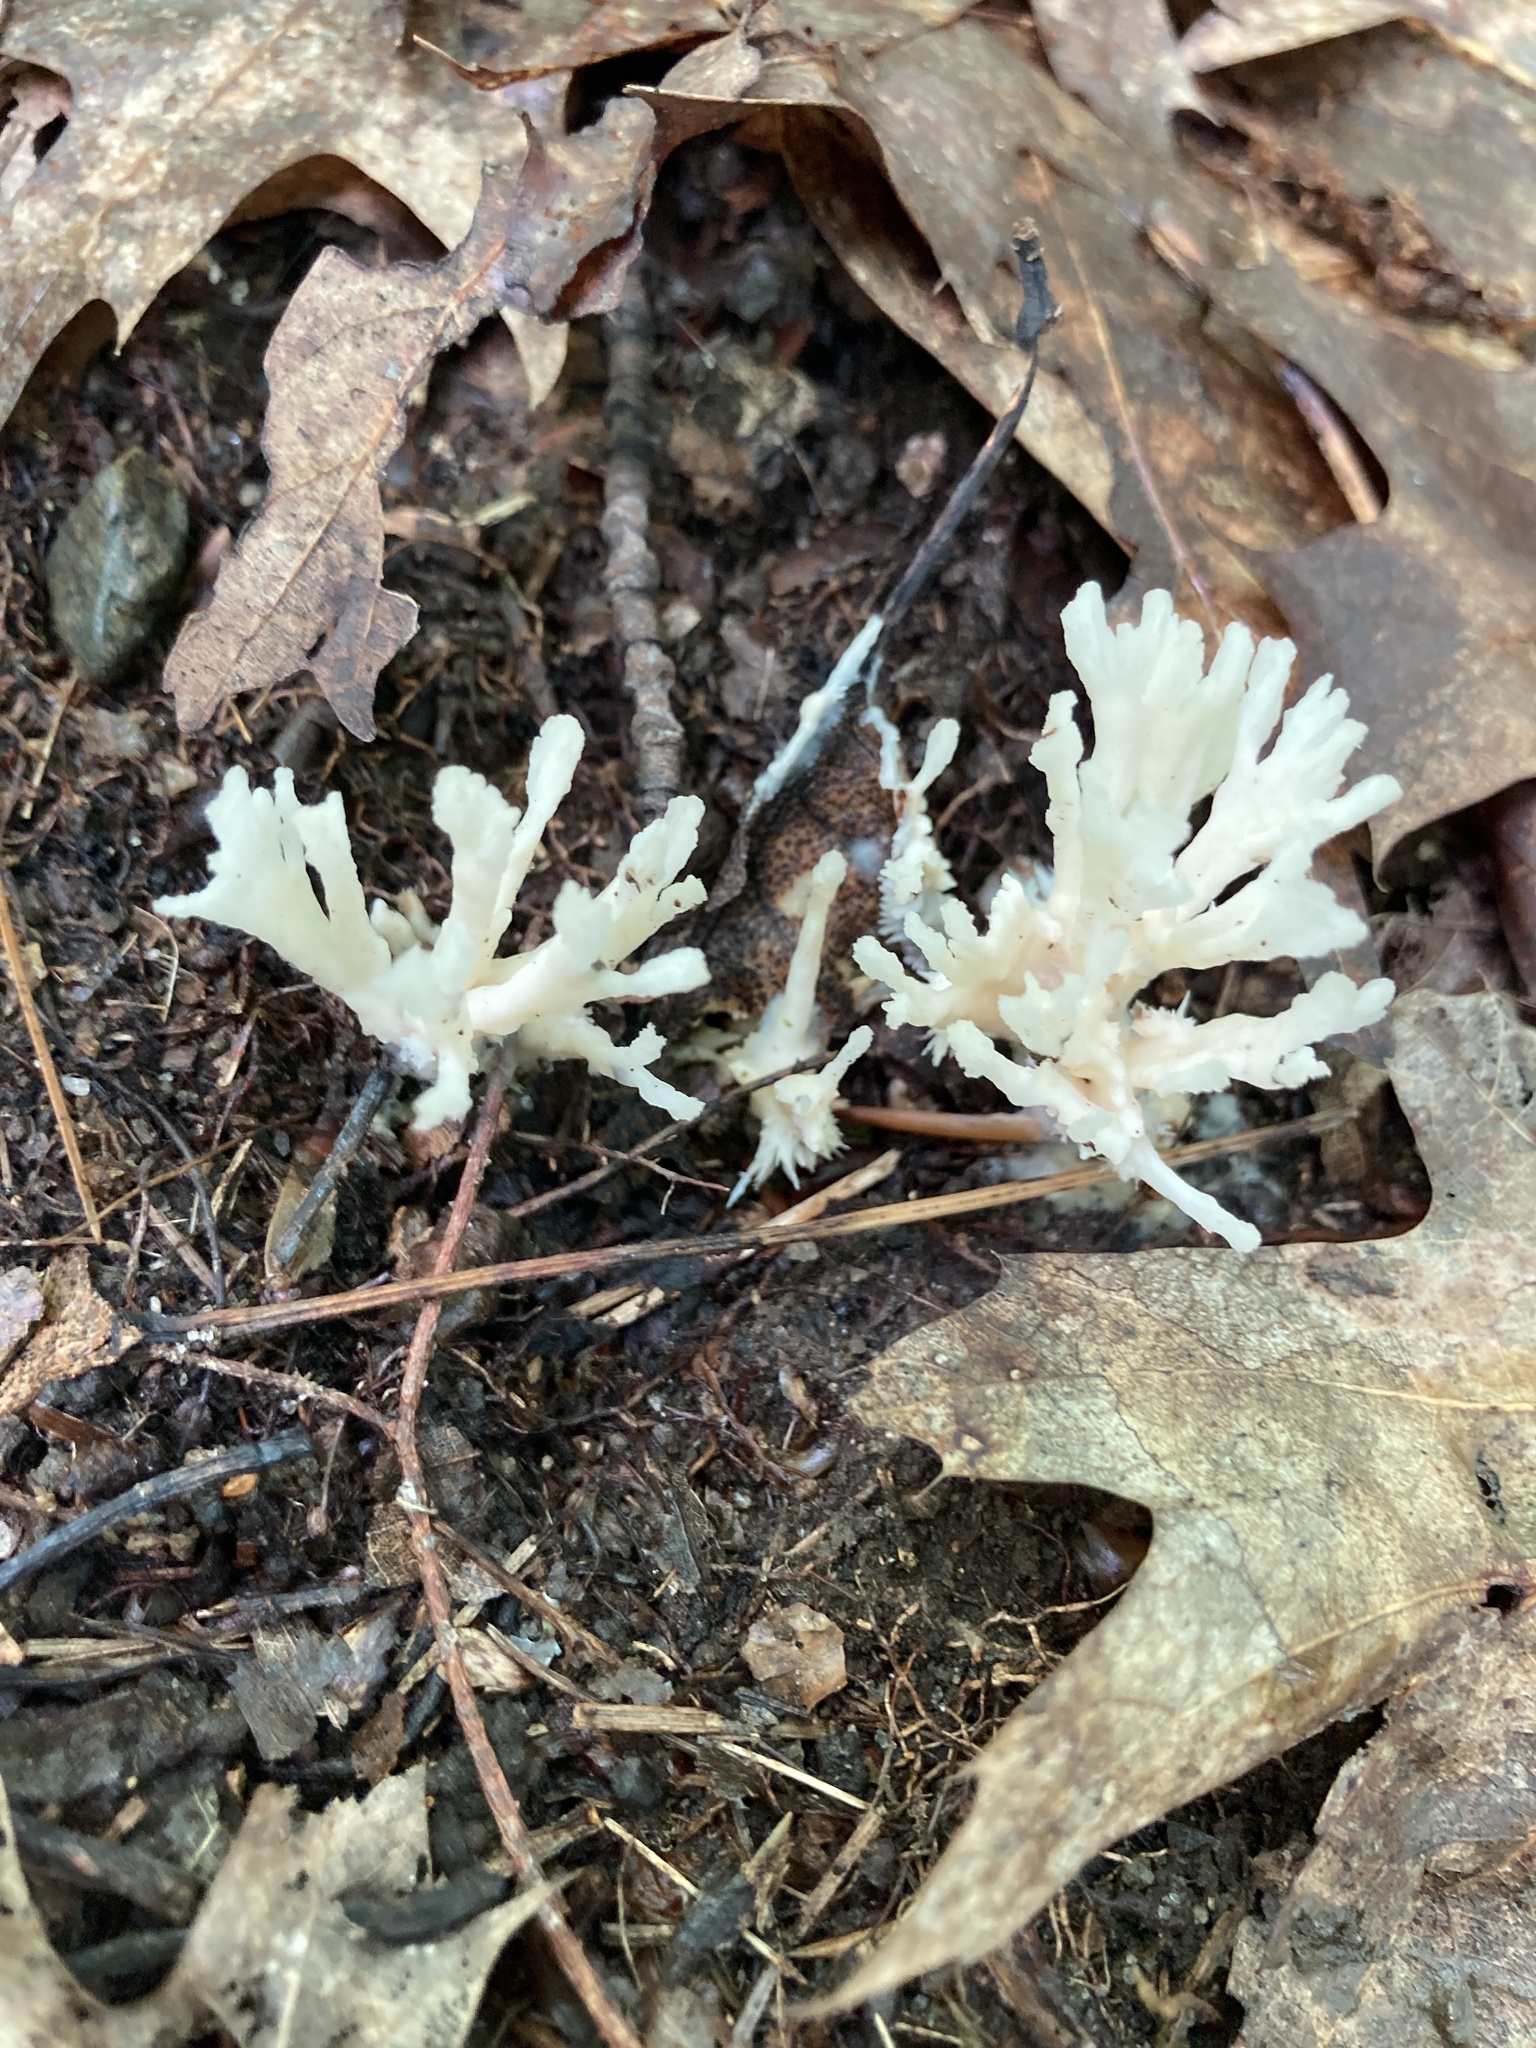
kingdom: Fungi
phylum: Basidiomycota
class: Agaricomycetes
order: Sebacinales
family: Sebacinaceae
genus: Sebacina
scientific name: Sebacina schweinitzii
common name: Jellied false coral fungus
